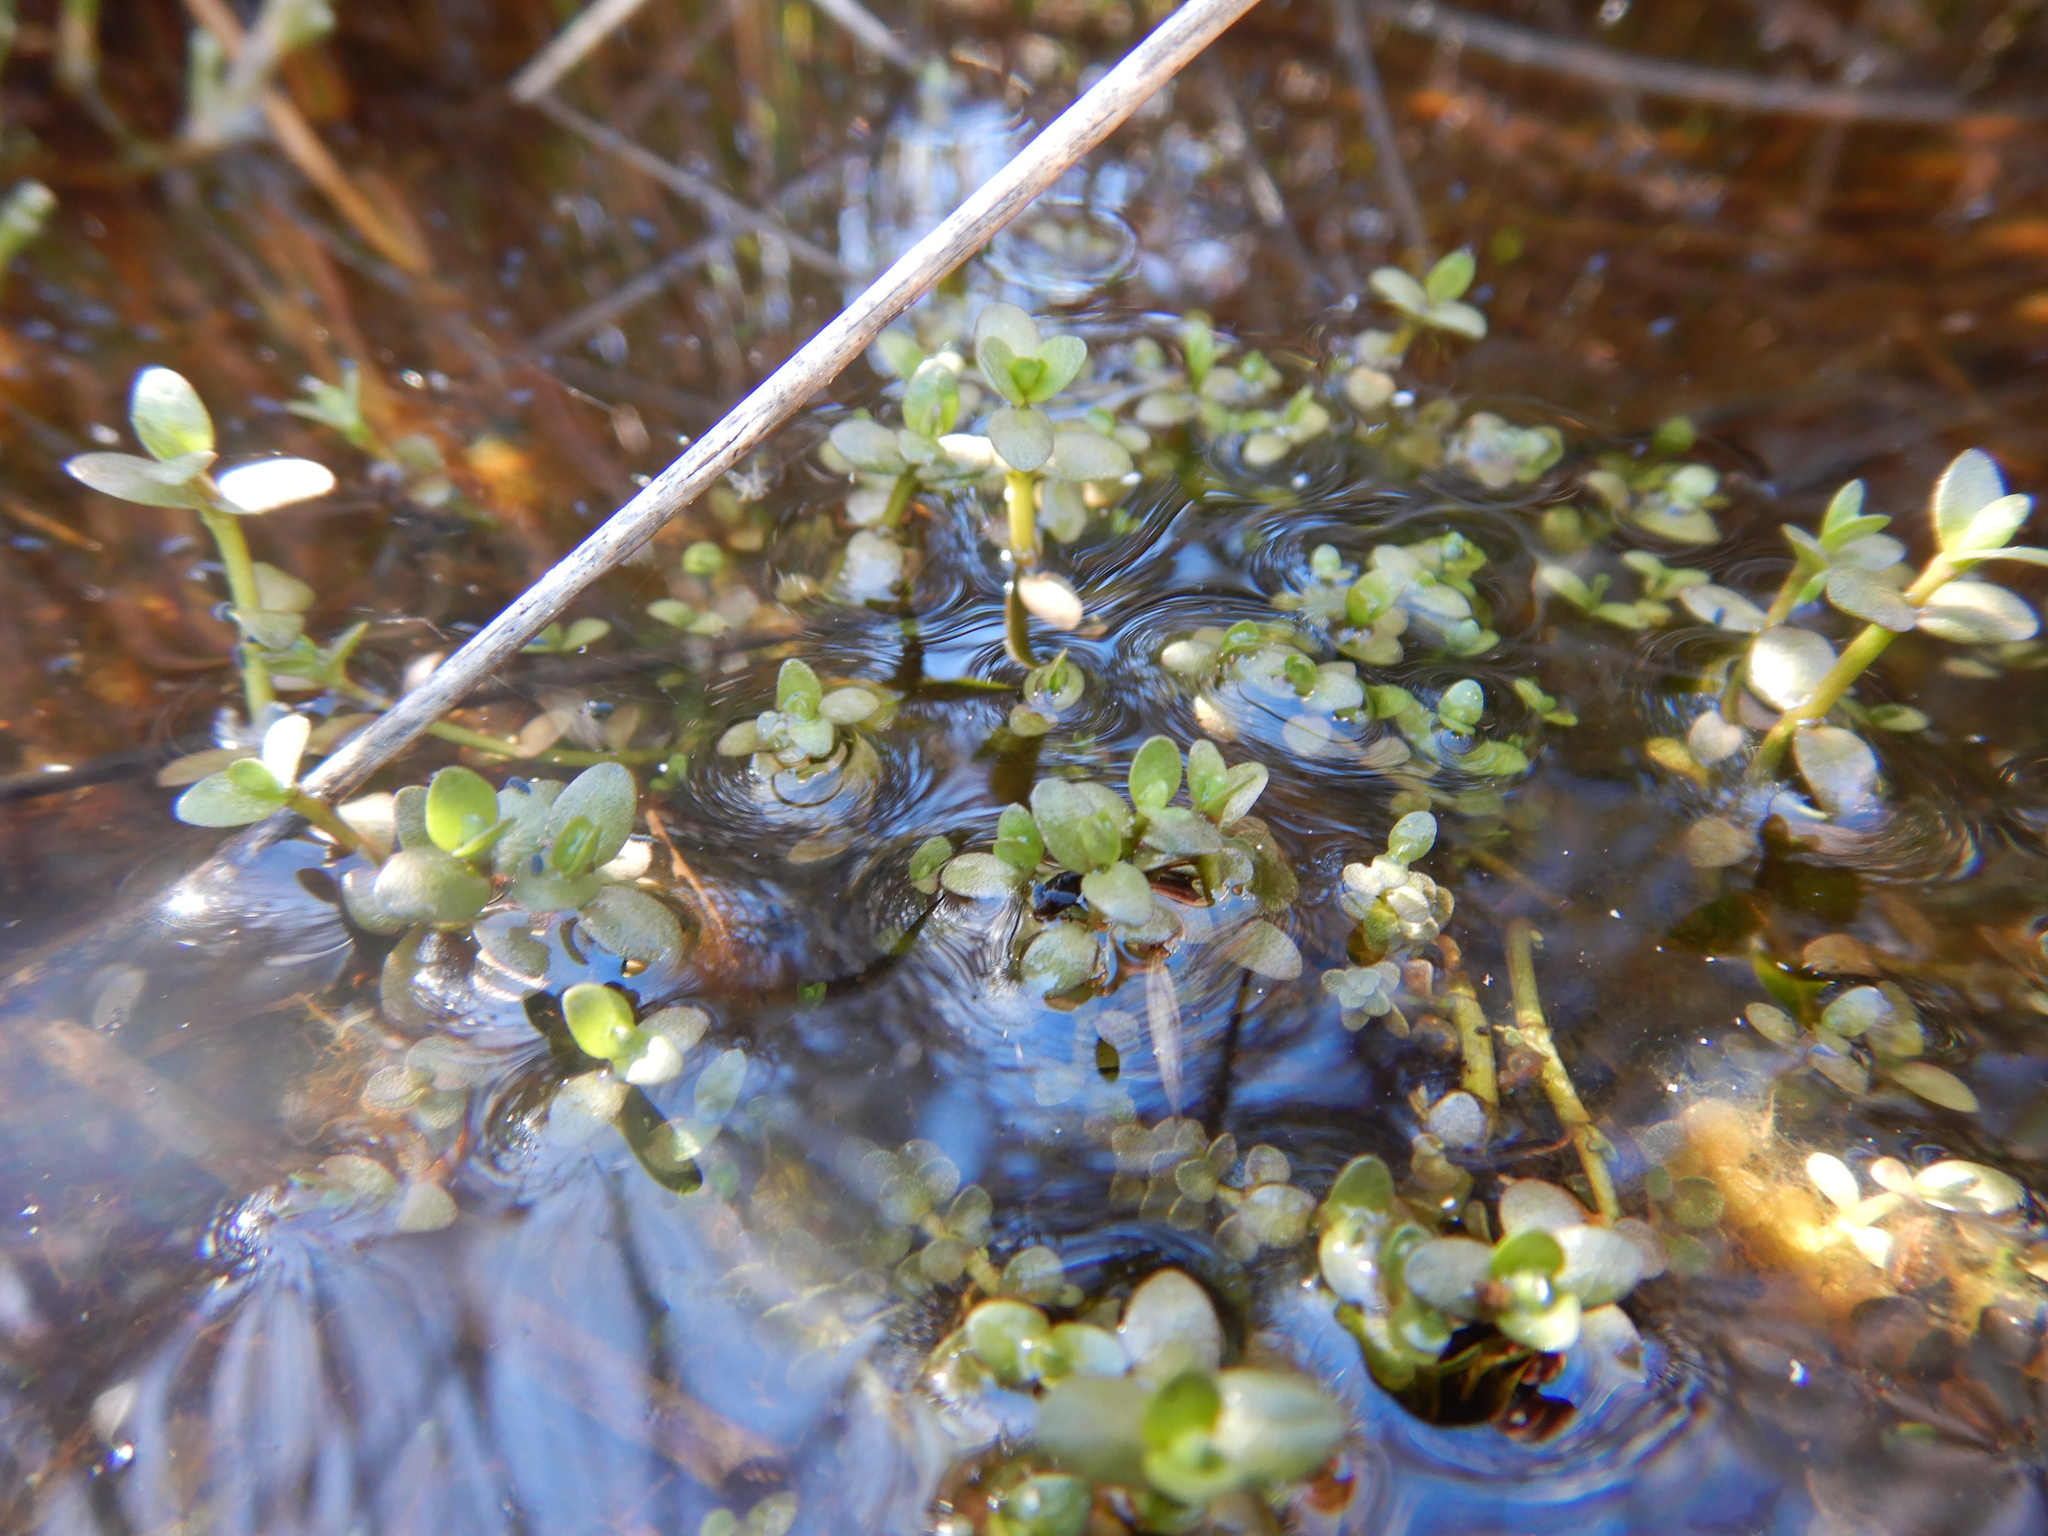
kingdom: Plantae
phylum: Tracheophyta
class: Magnoliopsida
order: Lamiales
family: Phrymaceae
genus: Thyridia
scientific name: Thyridia repens
